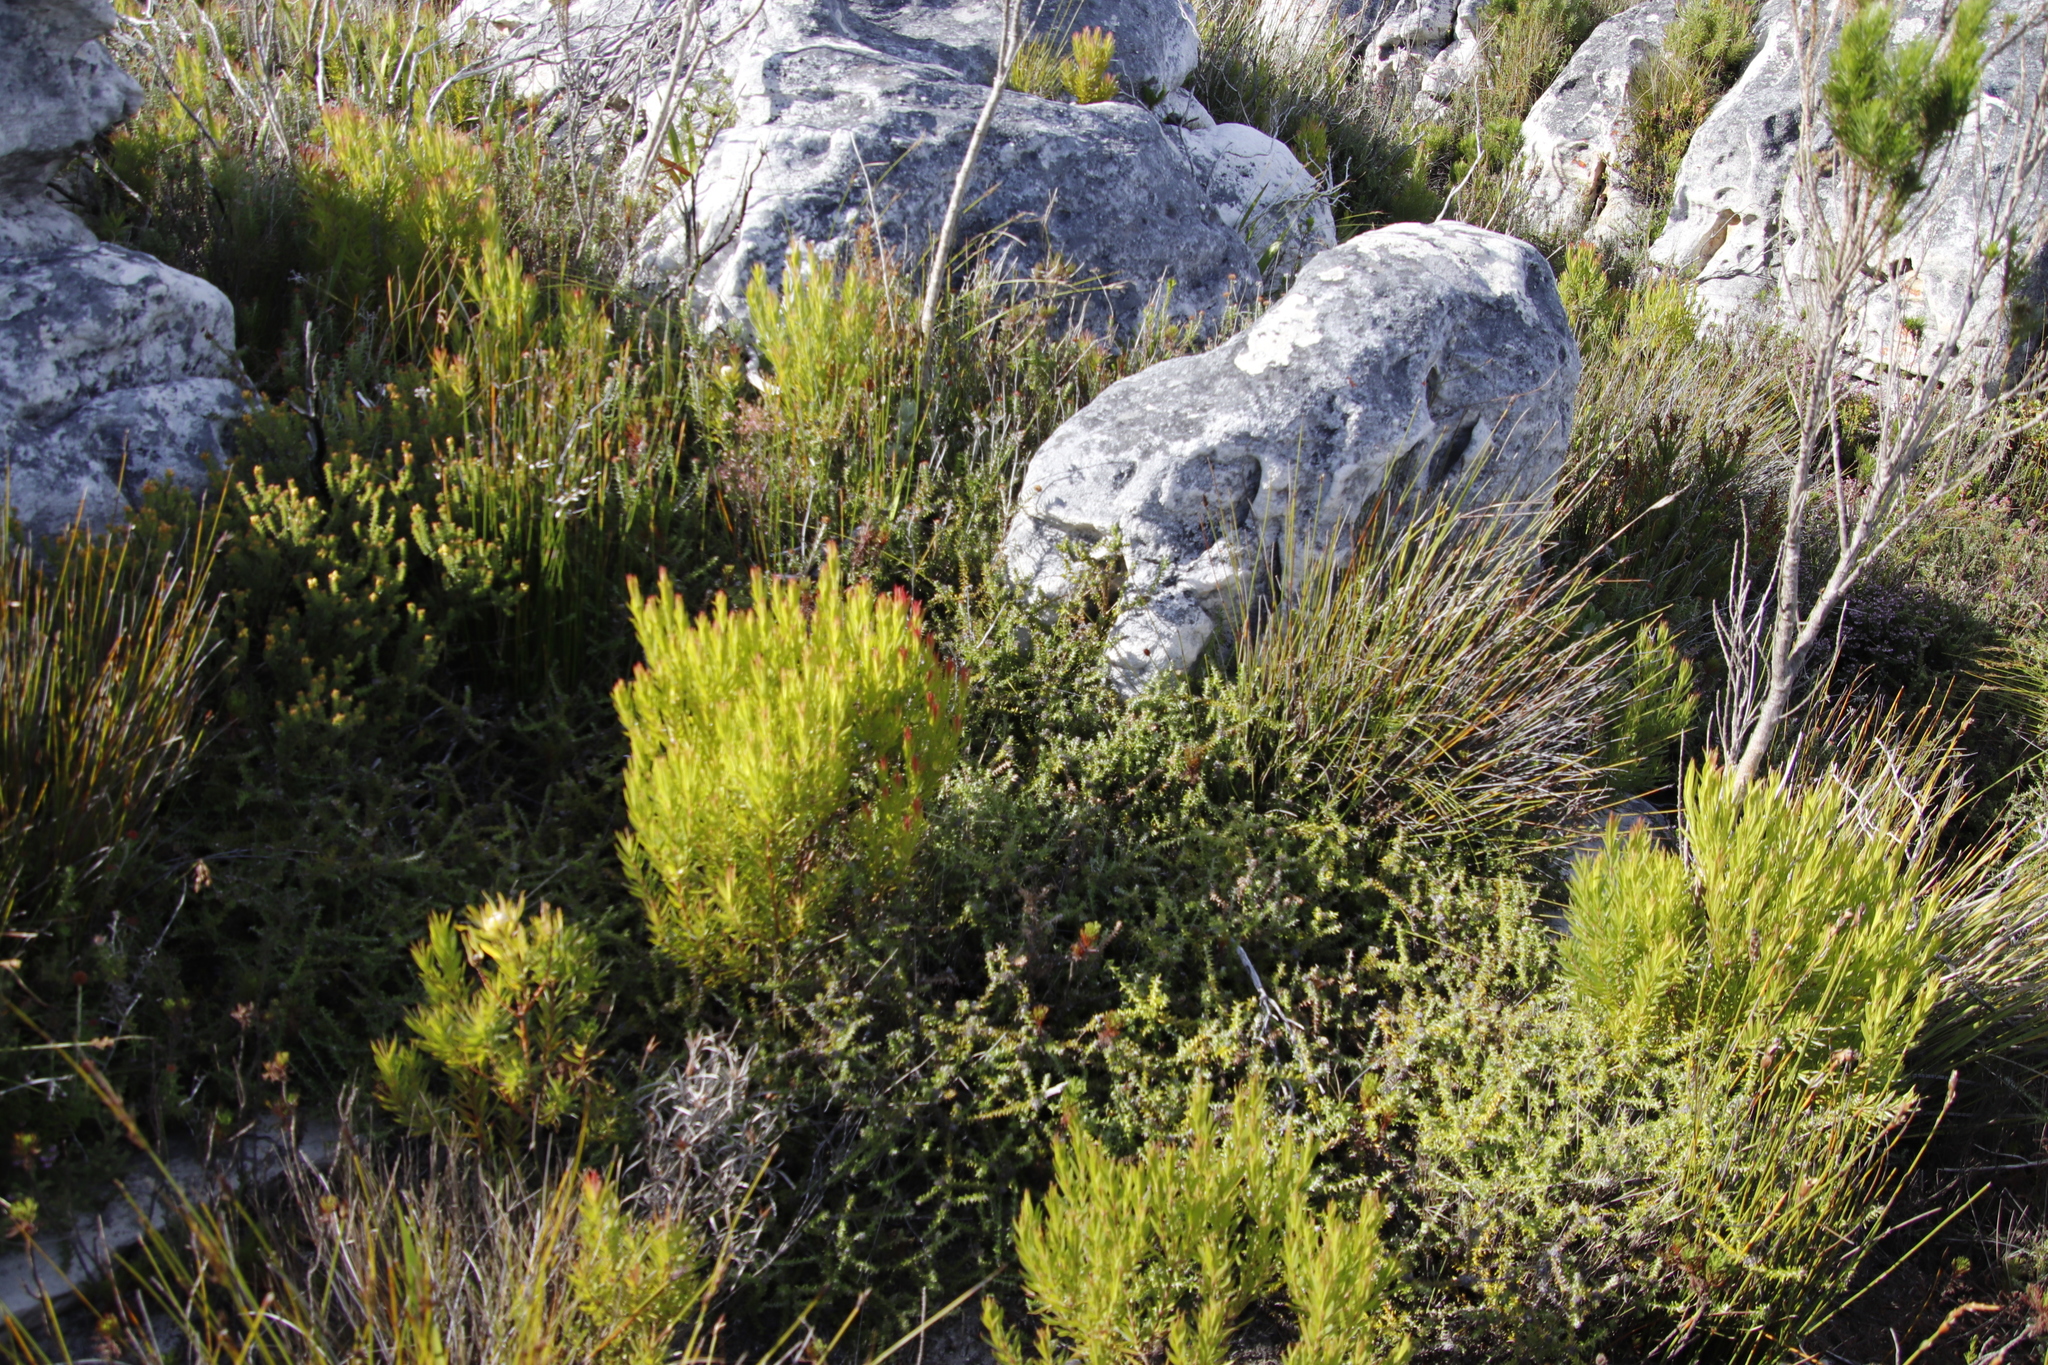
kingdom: Plantae
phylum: Tracheophyta
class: Magnoliopsida
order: Proteales
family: Proteaceae
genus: Leucadendron
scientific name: Leucadendron xanthoconus
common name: Sickle-leaf conebush
